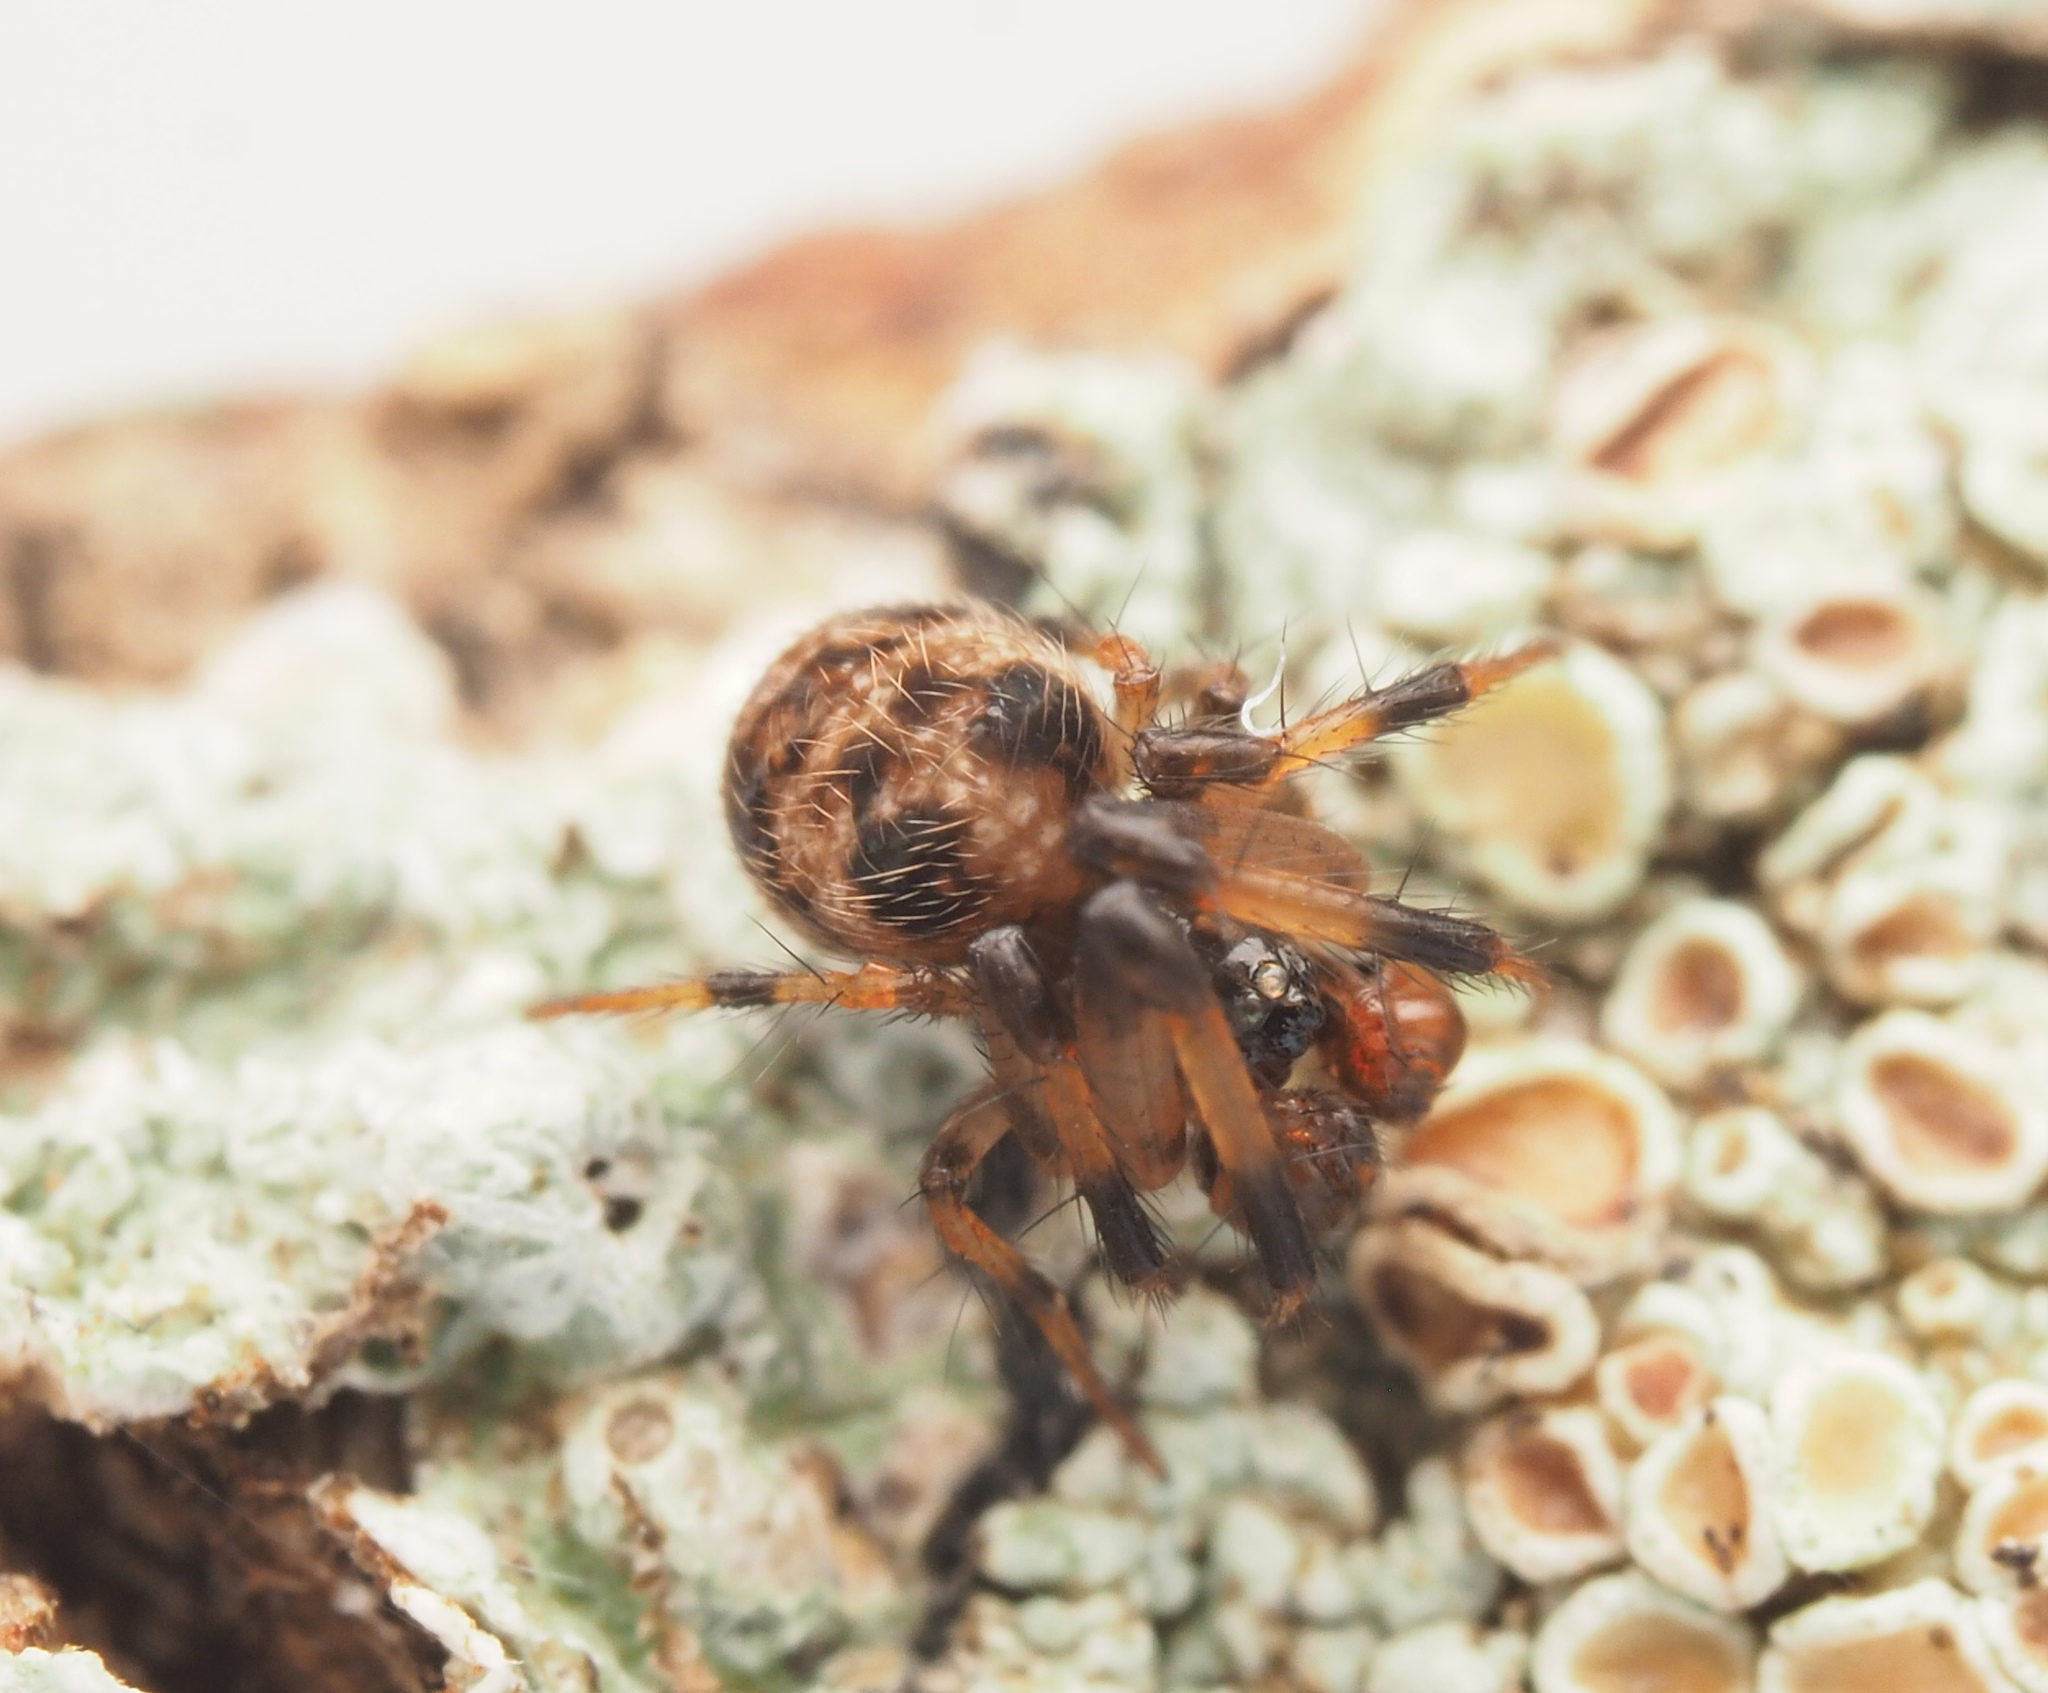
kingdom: Animalia
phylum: Arthropoda
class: Arachnida
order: Araneae
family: Theridiosomatidae
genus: Baalzebub
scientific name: Baalzebub
